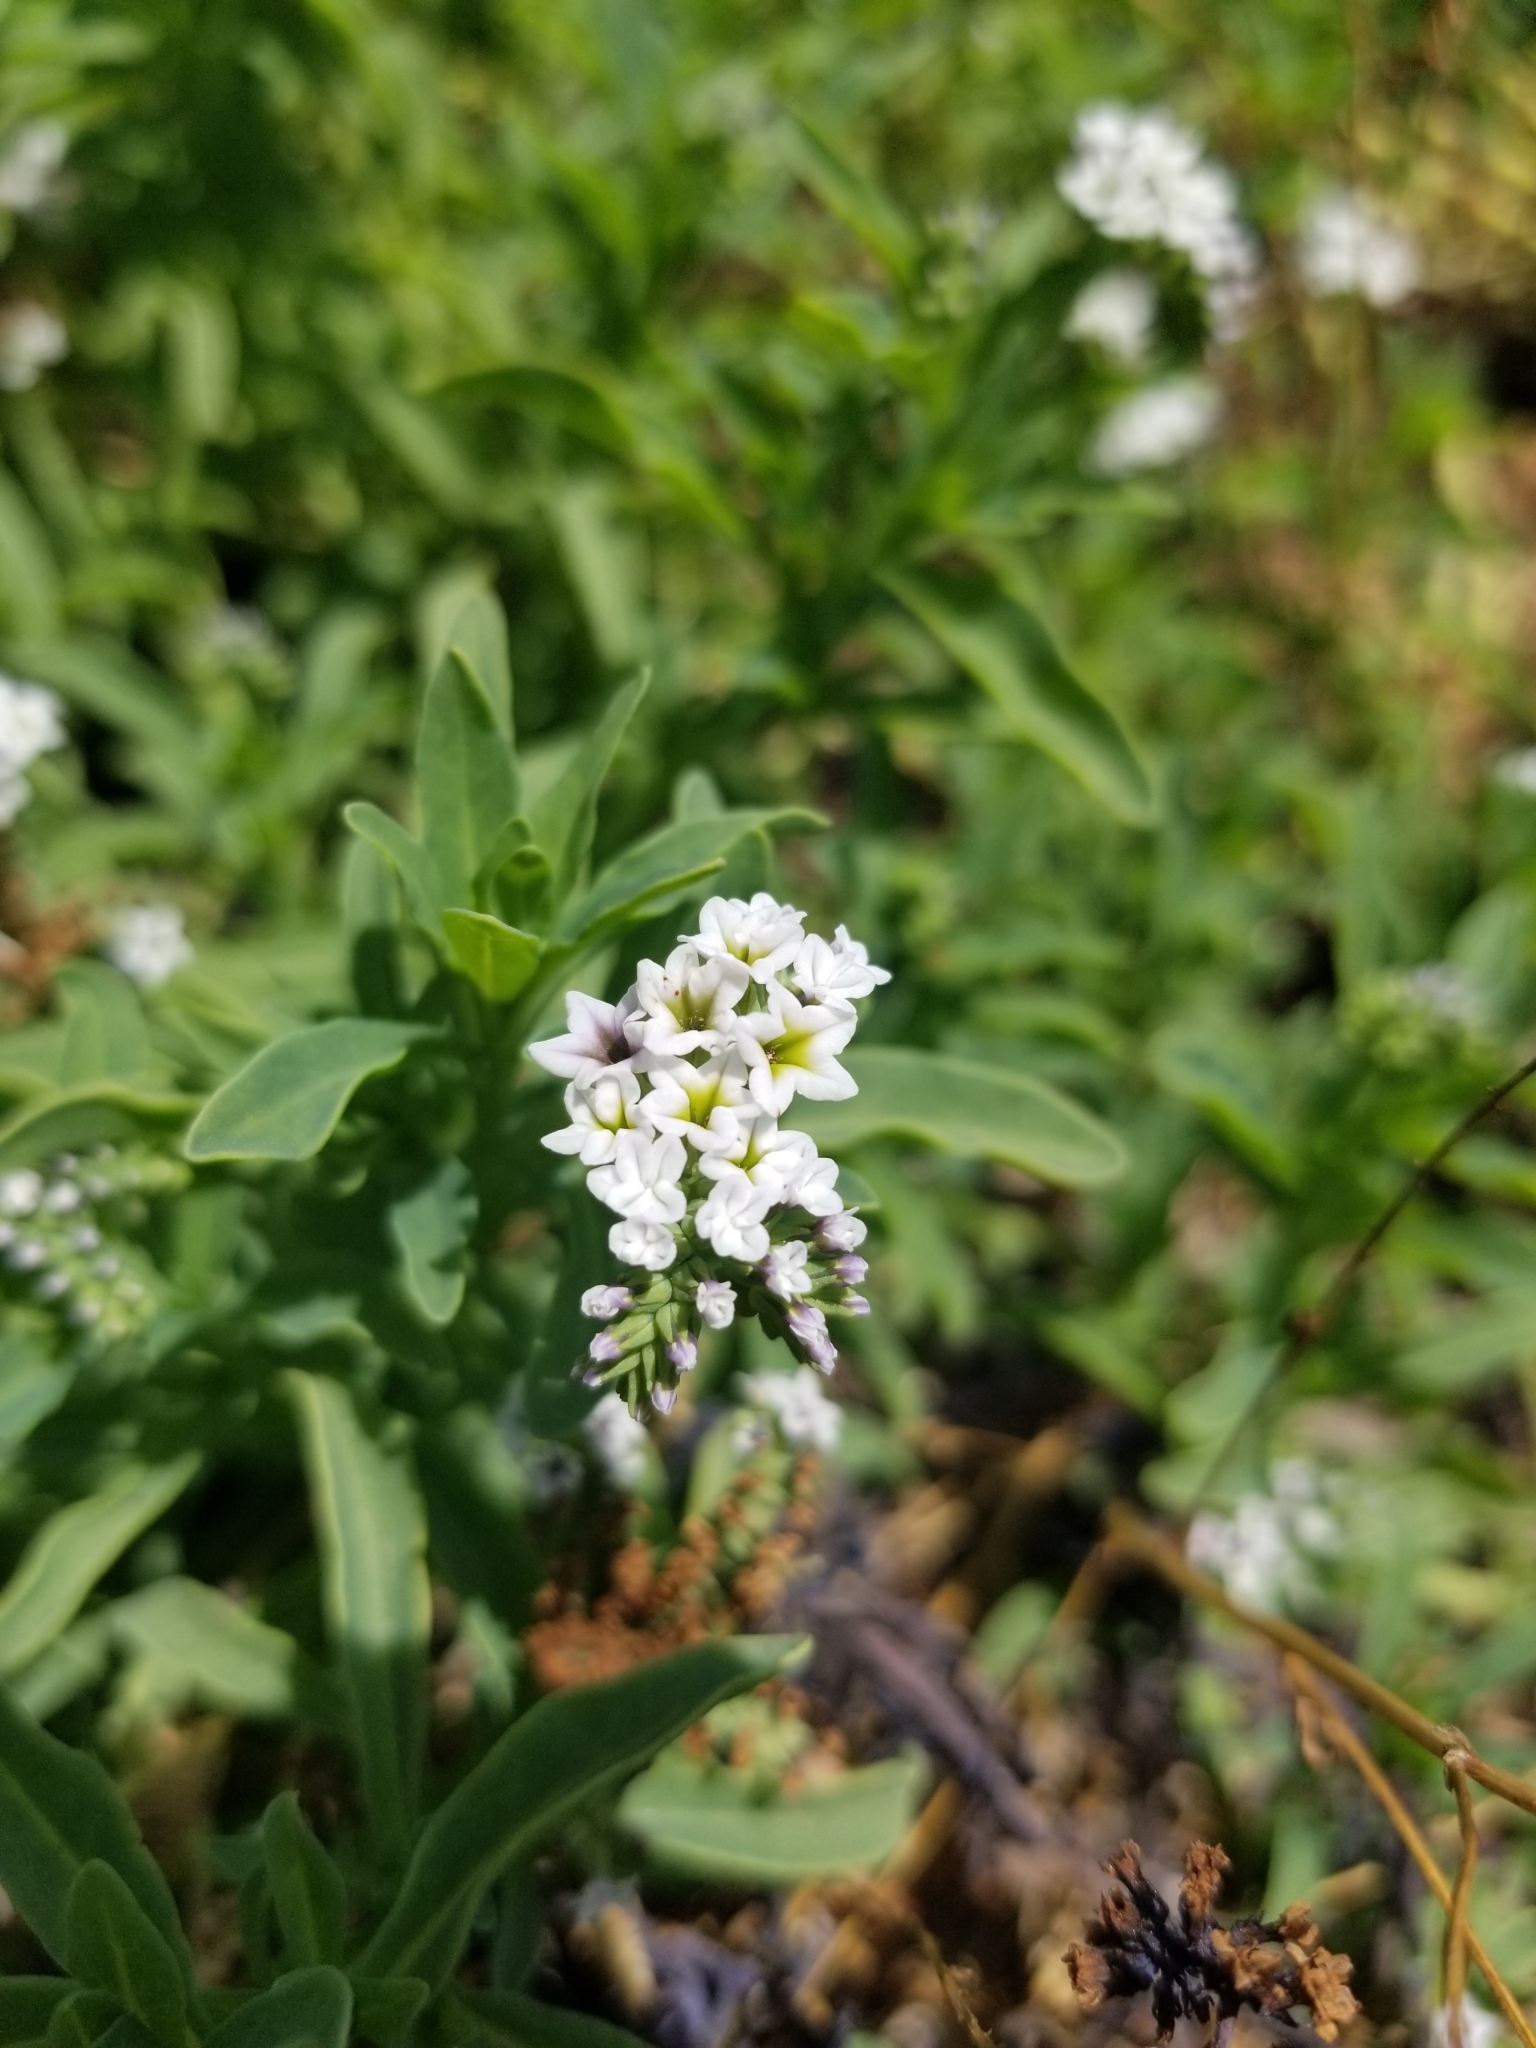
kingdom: Plantae
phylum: Tracheophyta
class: Magnoliopsida
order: Boraginales
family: Heliotropiaceae
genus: Heliotropium
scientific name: Heliotropium curassavicum
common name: Seaside heliotrope
